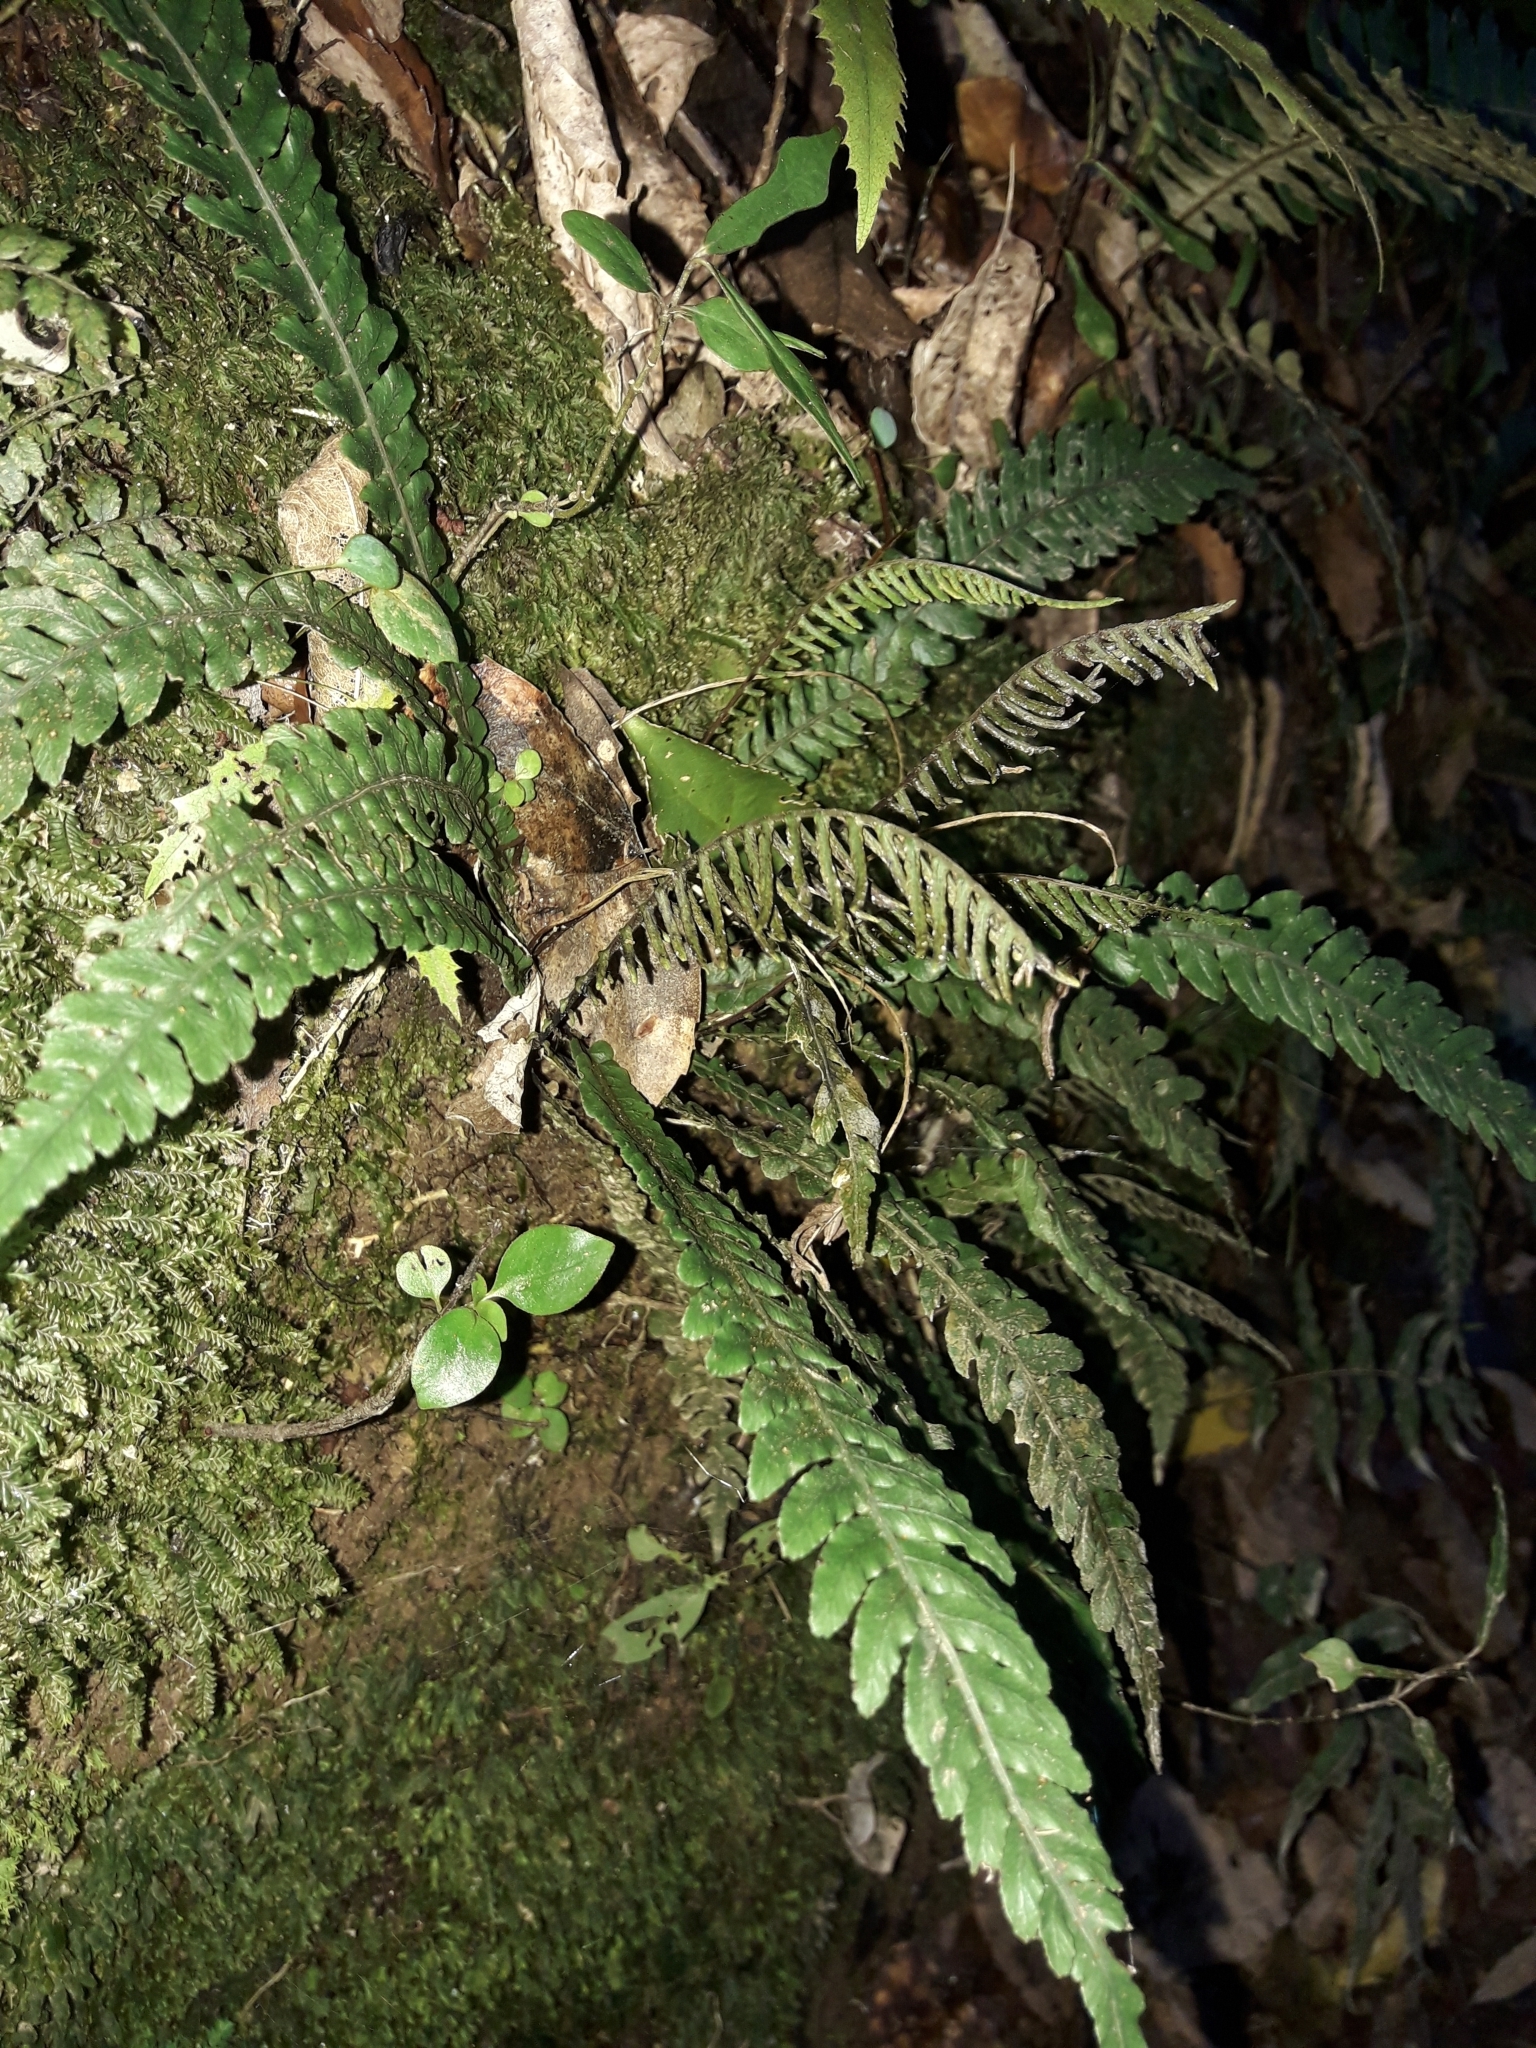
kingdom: Plantae
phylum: Tracheophyta
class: Polypodiopsida
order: Polypodiales
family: Blechnaceae
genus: Austroblechnum
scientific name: Austroblechnum membranaceum
